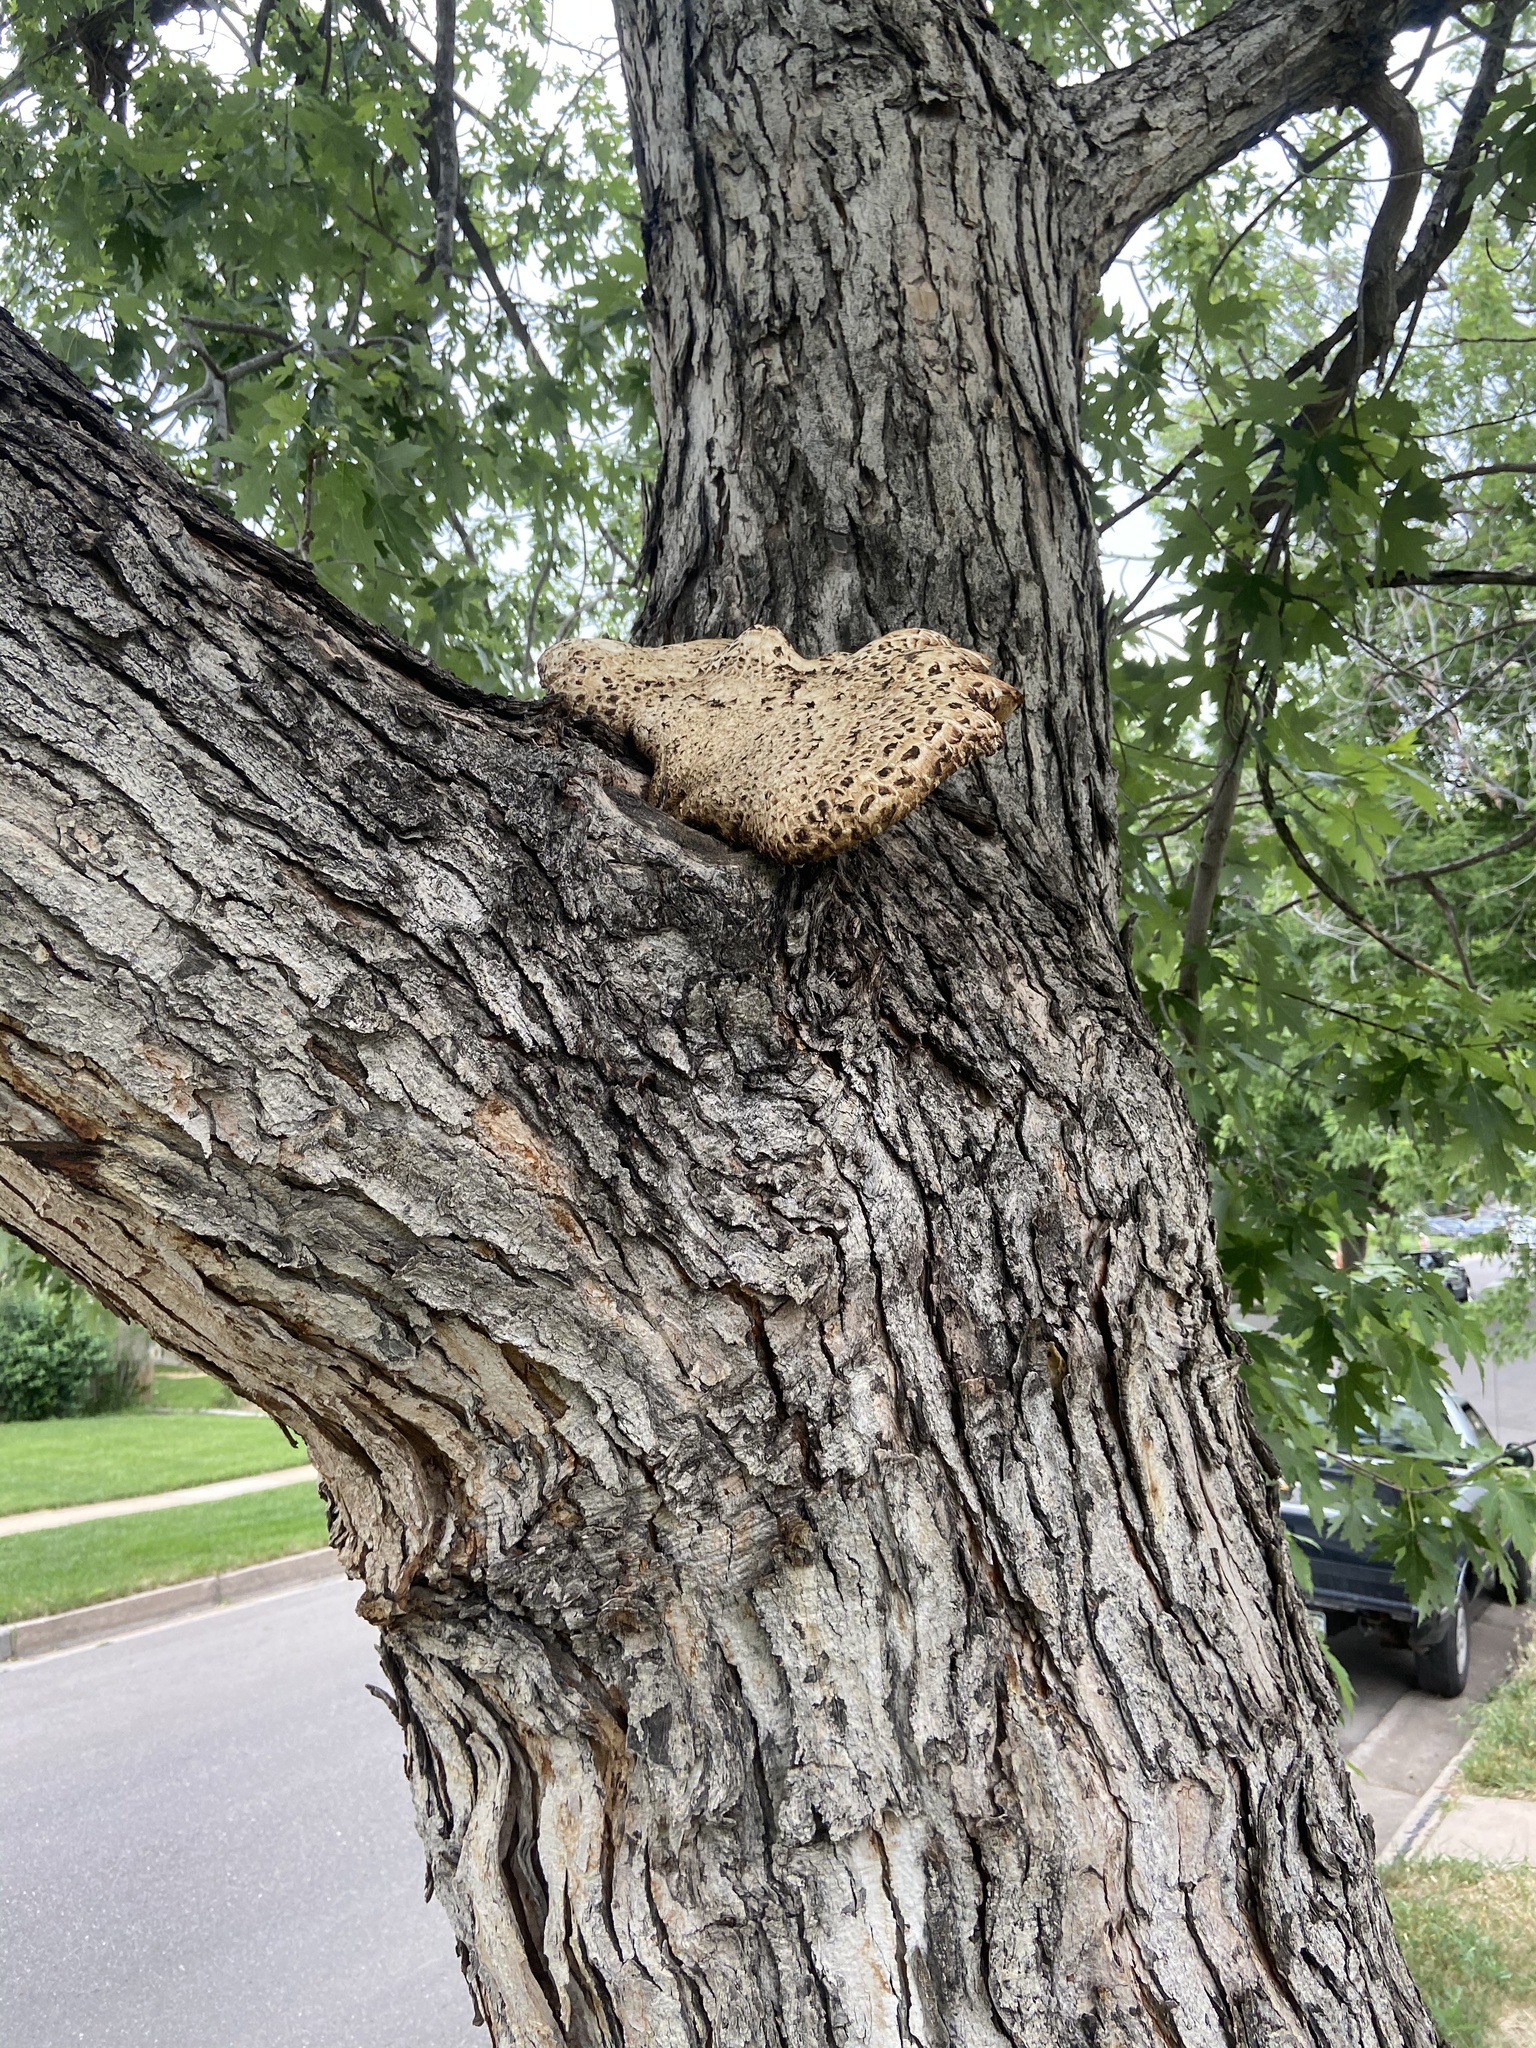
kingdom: Fungi
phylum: Basidiomycota
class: Agaricomycetes
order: Polyporales
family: Polyporaceae
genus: Cerioporus
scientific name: Cerioporus squamosus
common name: Dryad's saddle
